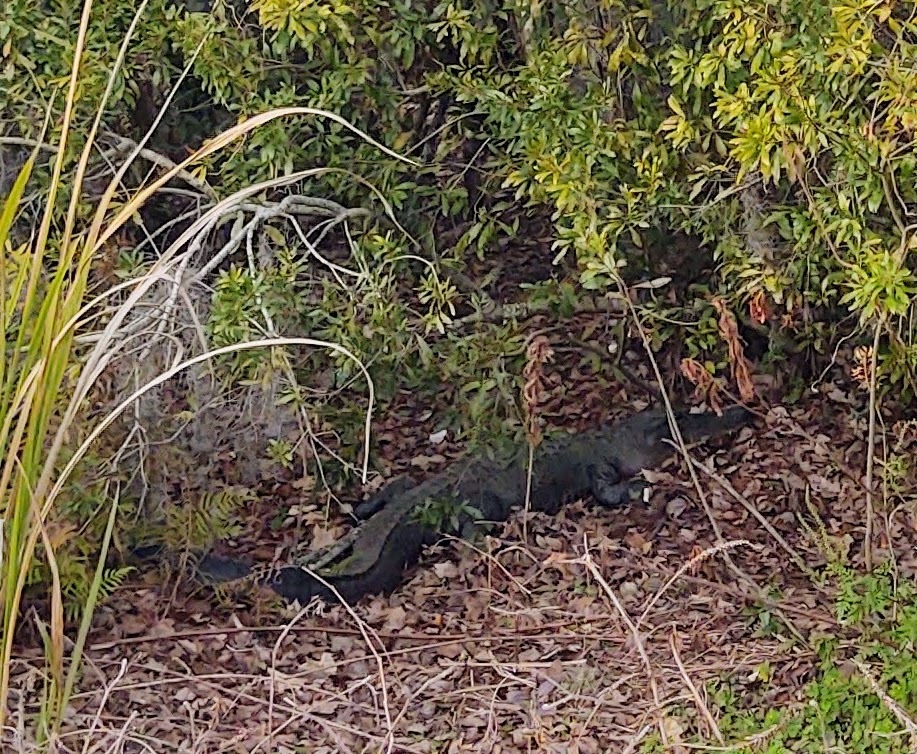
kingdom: Animalia
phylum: Chordata
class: Crocodylia
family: Alligatoridae
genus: Alligator
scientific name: Alligator mississippiensis
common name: American alligator
